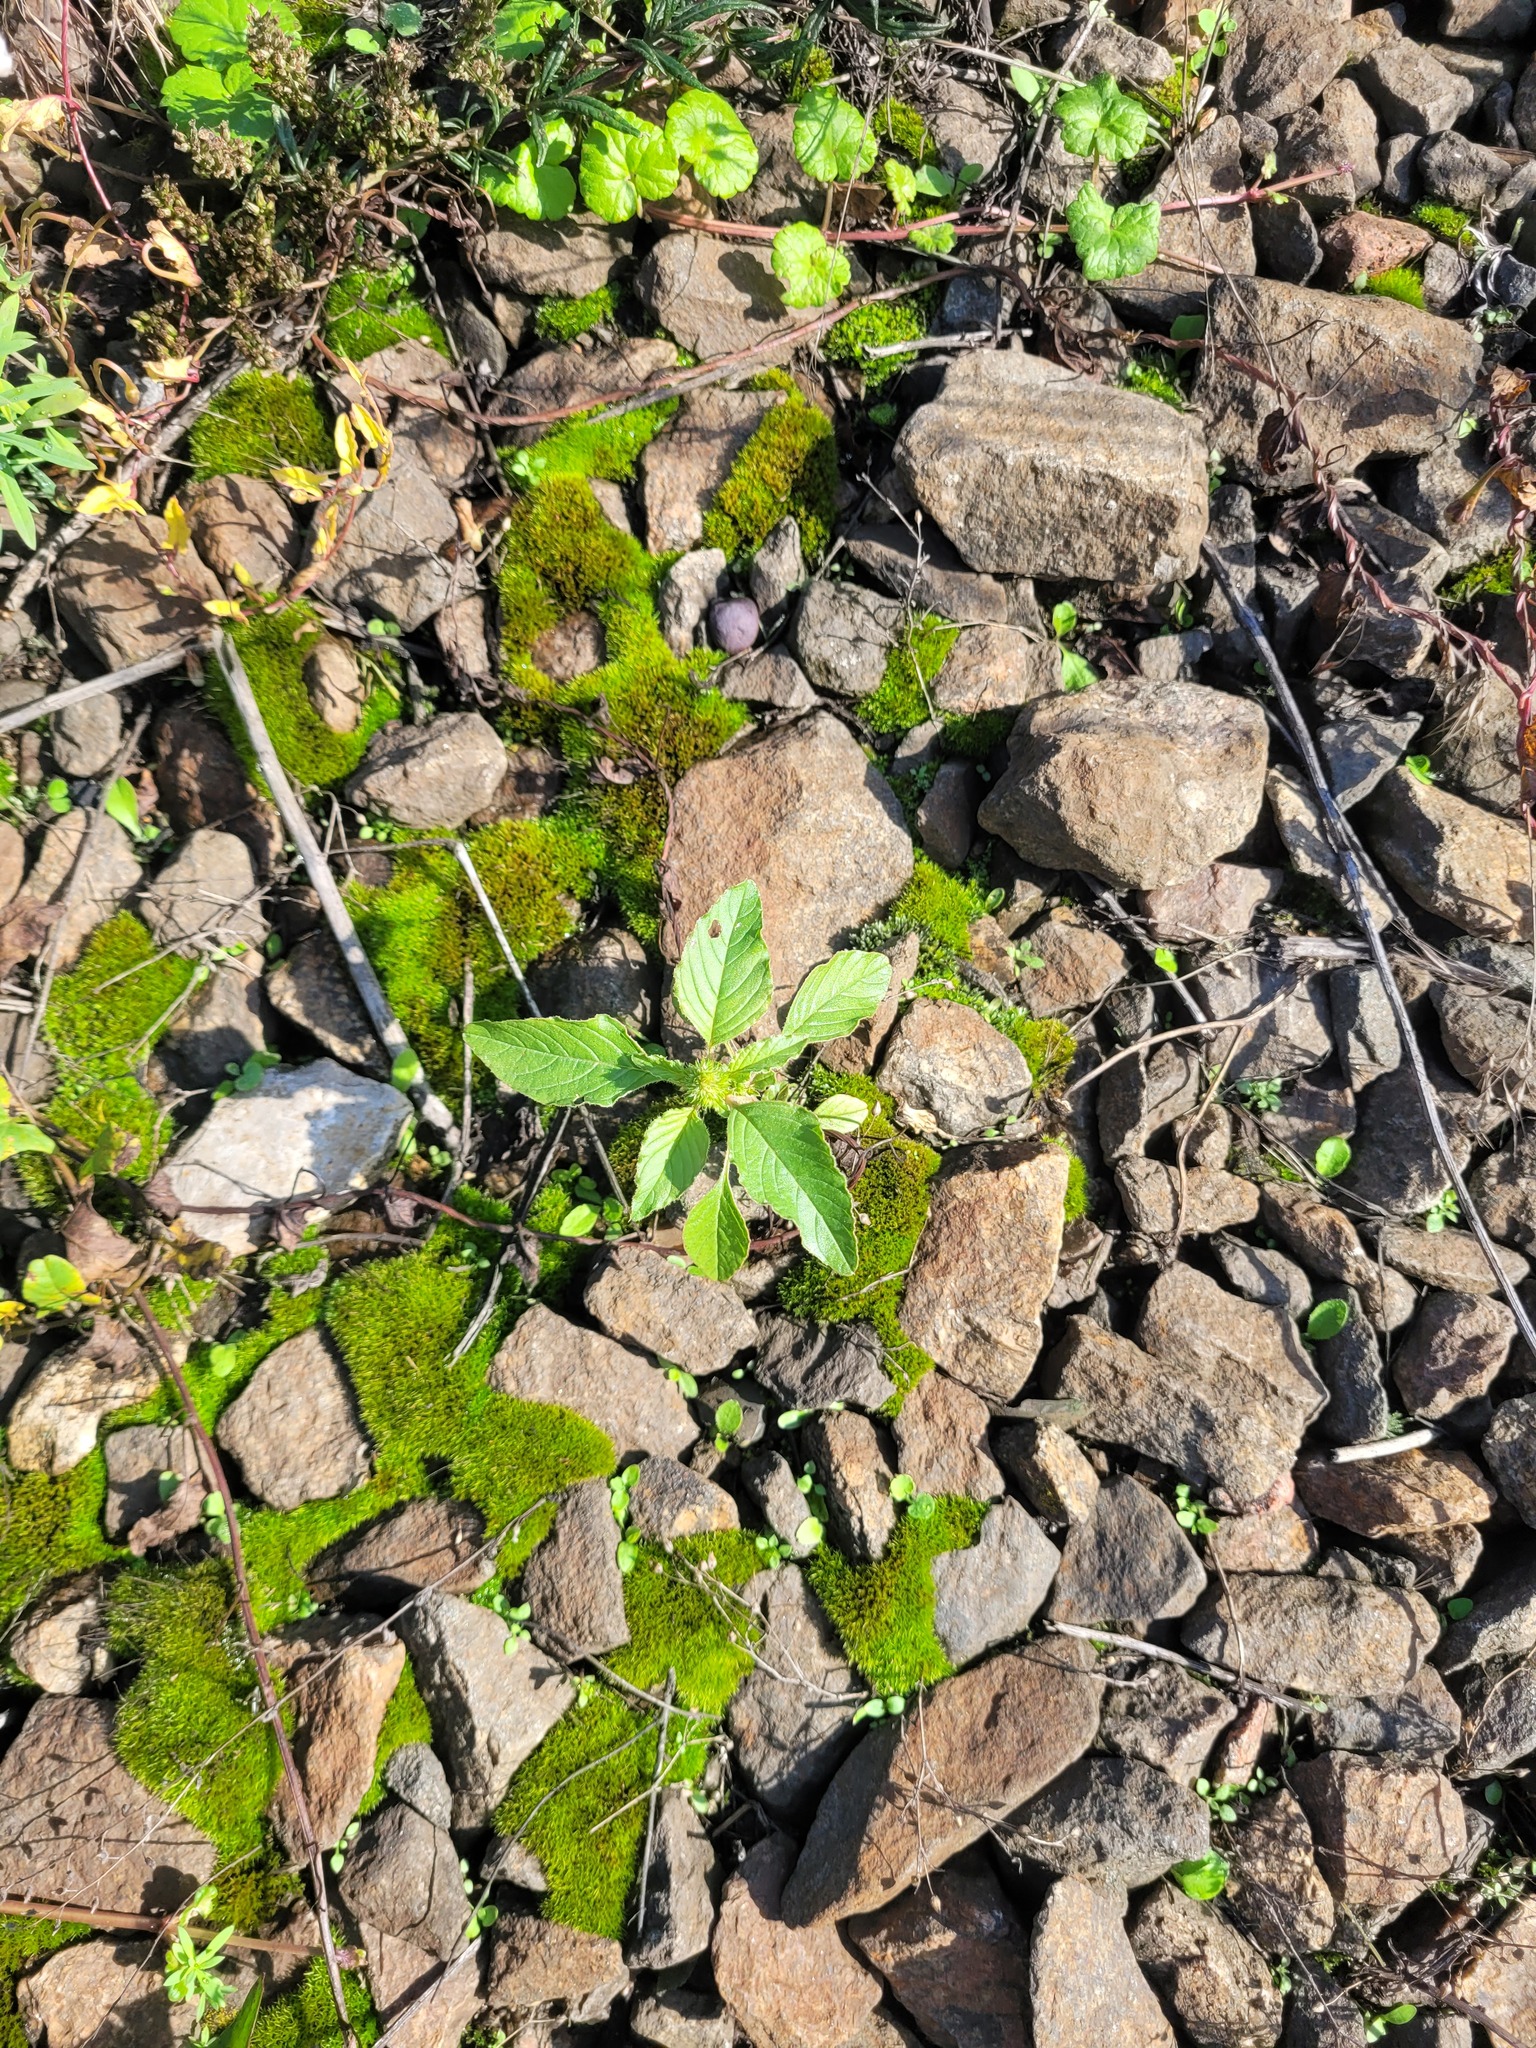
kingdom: Plantae
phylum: Tracheophyta
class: Magnoliopsida
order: Caryophyllales
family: Amaranthaceae
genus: Amaranthus
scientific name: Amaranthus retroflexus
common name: Redroot amaranth
